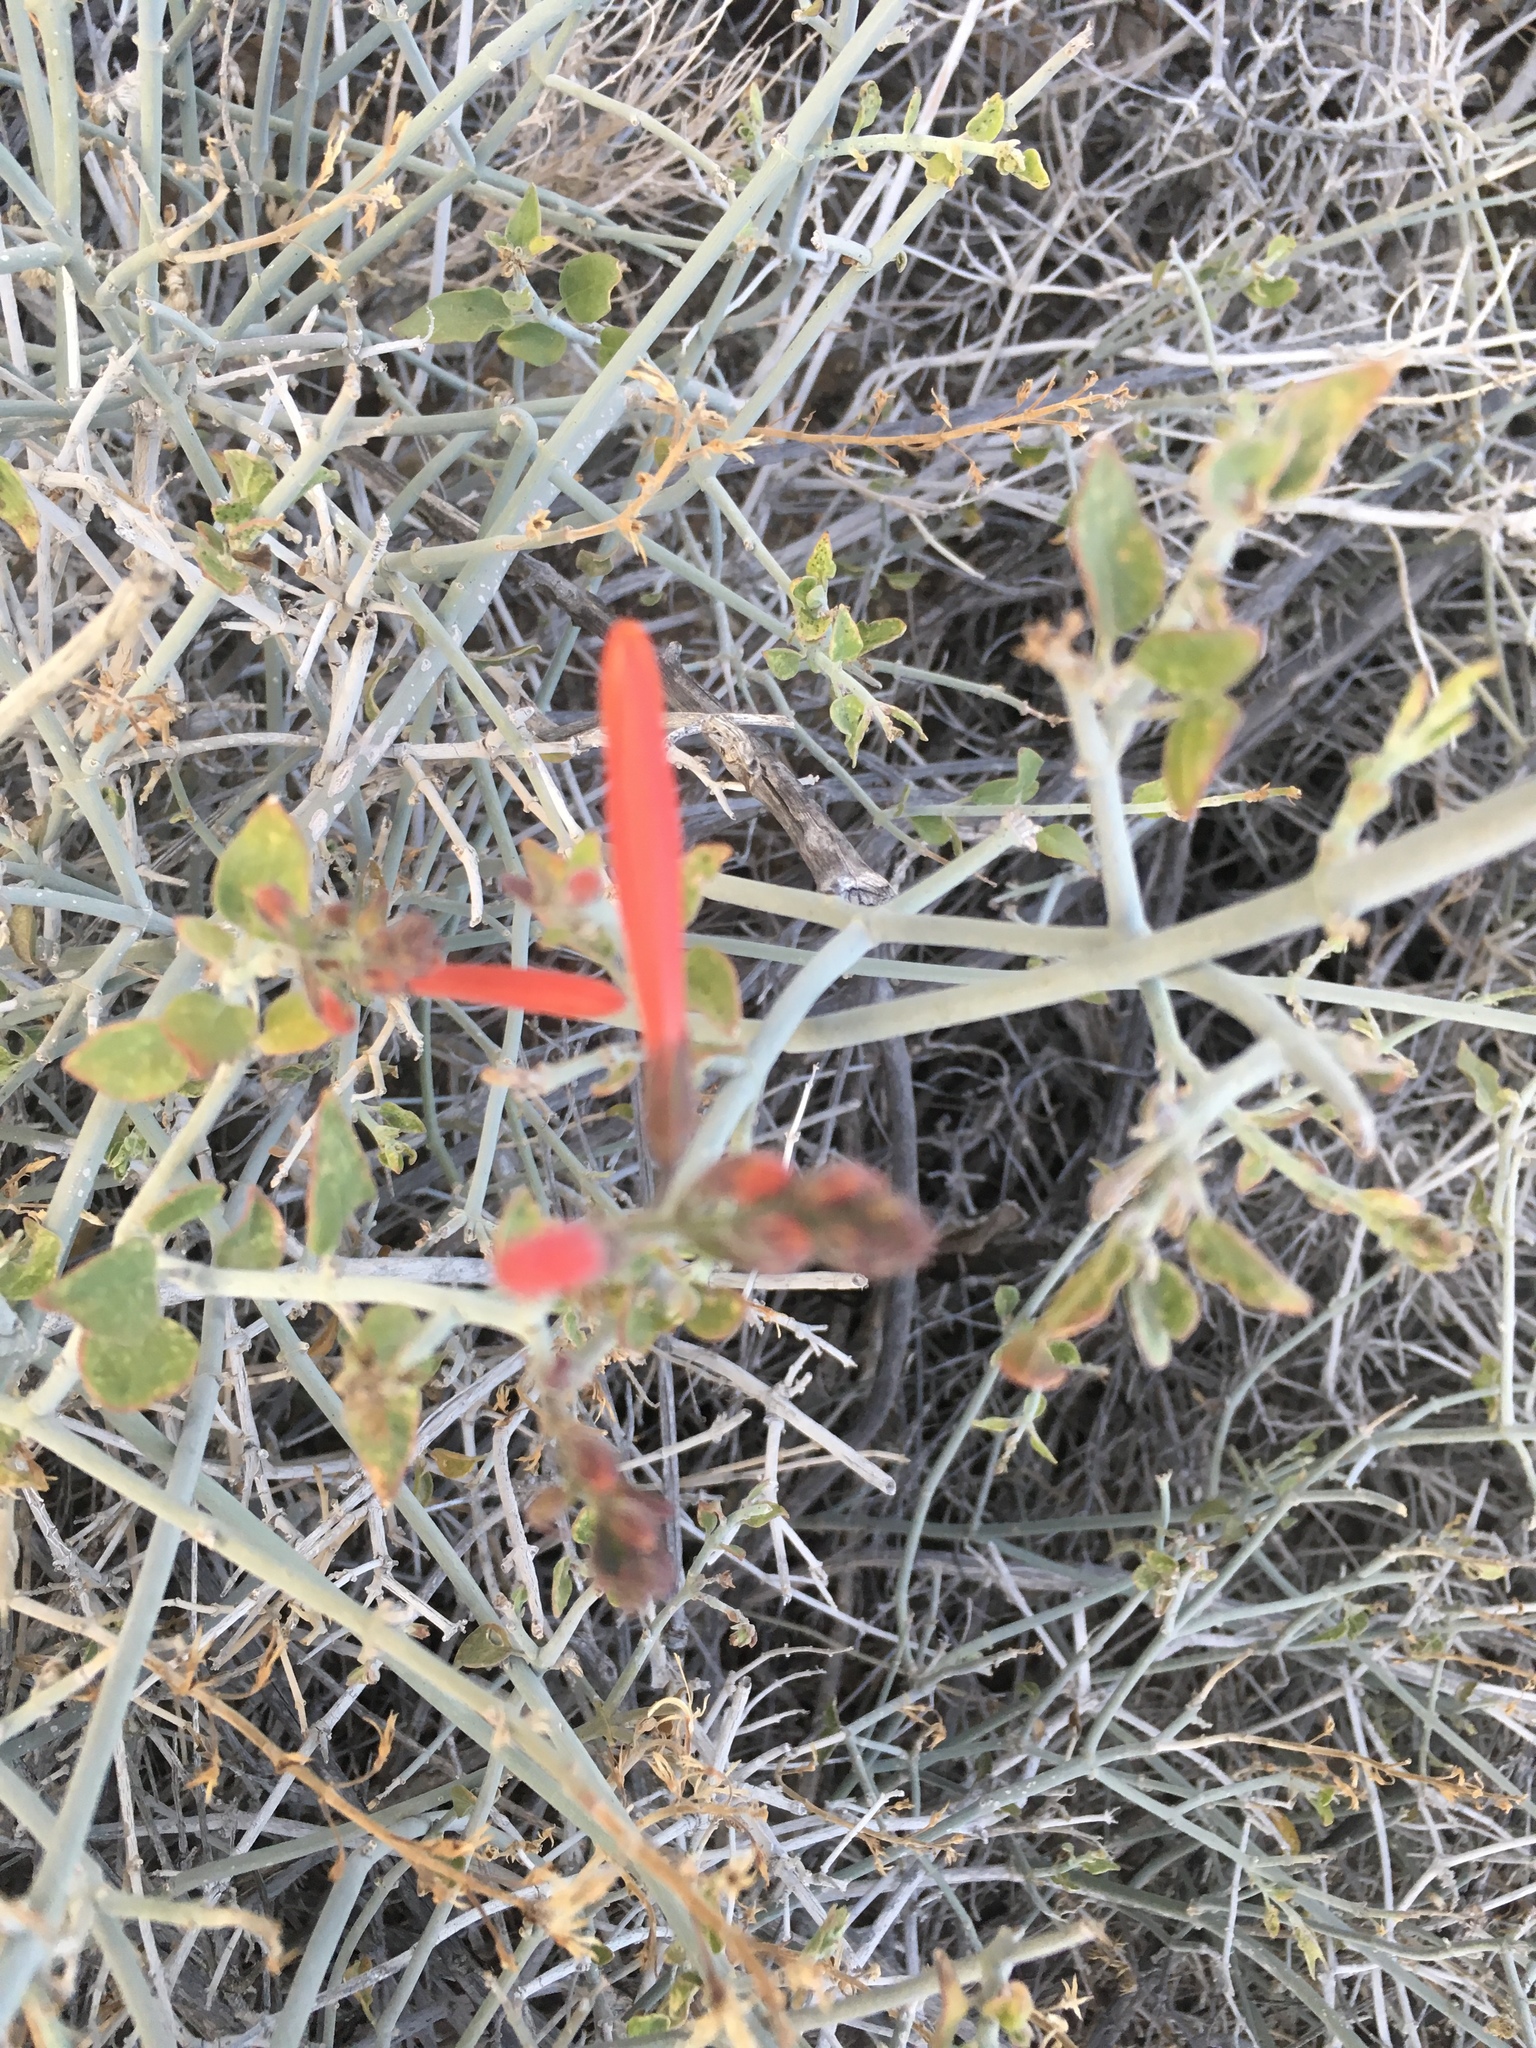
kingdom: Plantae
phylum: Tracheophyta
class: Magnoliopsida
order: Lamiales
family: Acanthaceae
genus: Justicia
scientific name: Justicia californica
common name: Chuparosa-honeysuckle
